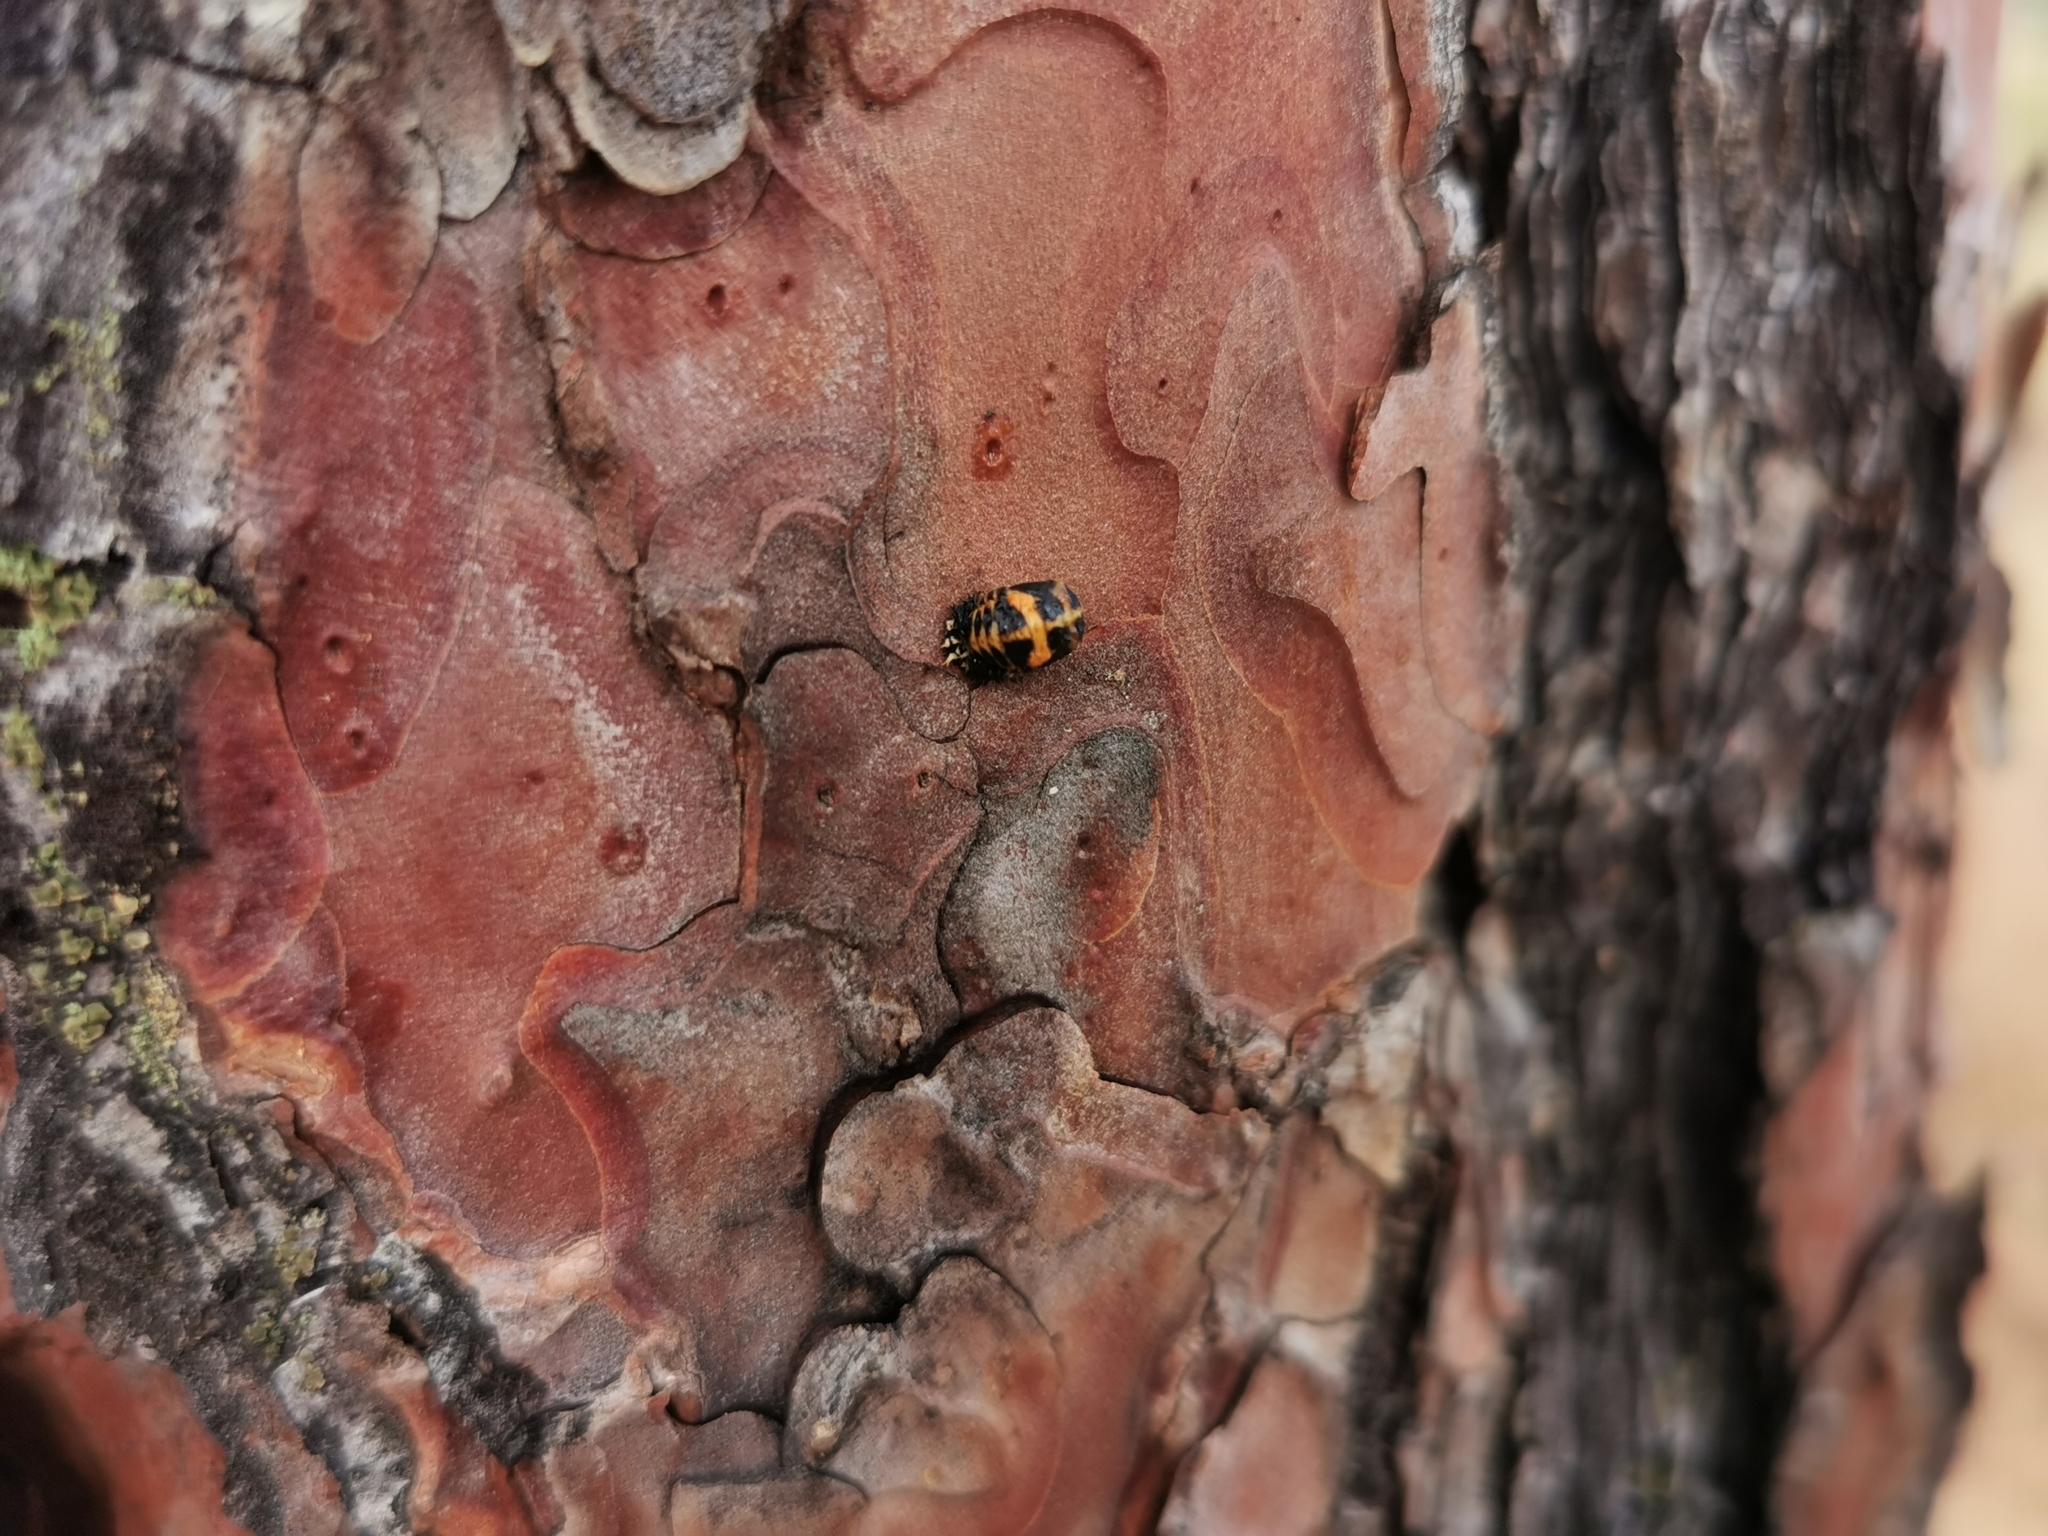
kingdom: Animalia
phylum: Arthropoda
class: Insecta
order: Coleoptera
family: Coccinellidae
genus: Harmonia
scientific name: Harmonia axyridis
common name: Harlequin ladybird
